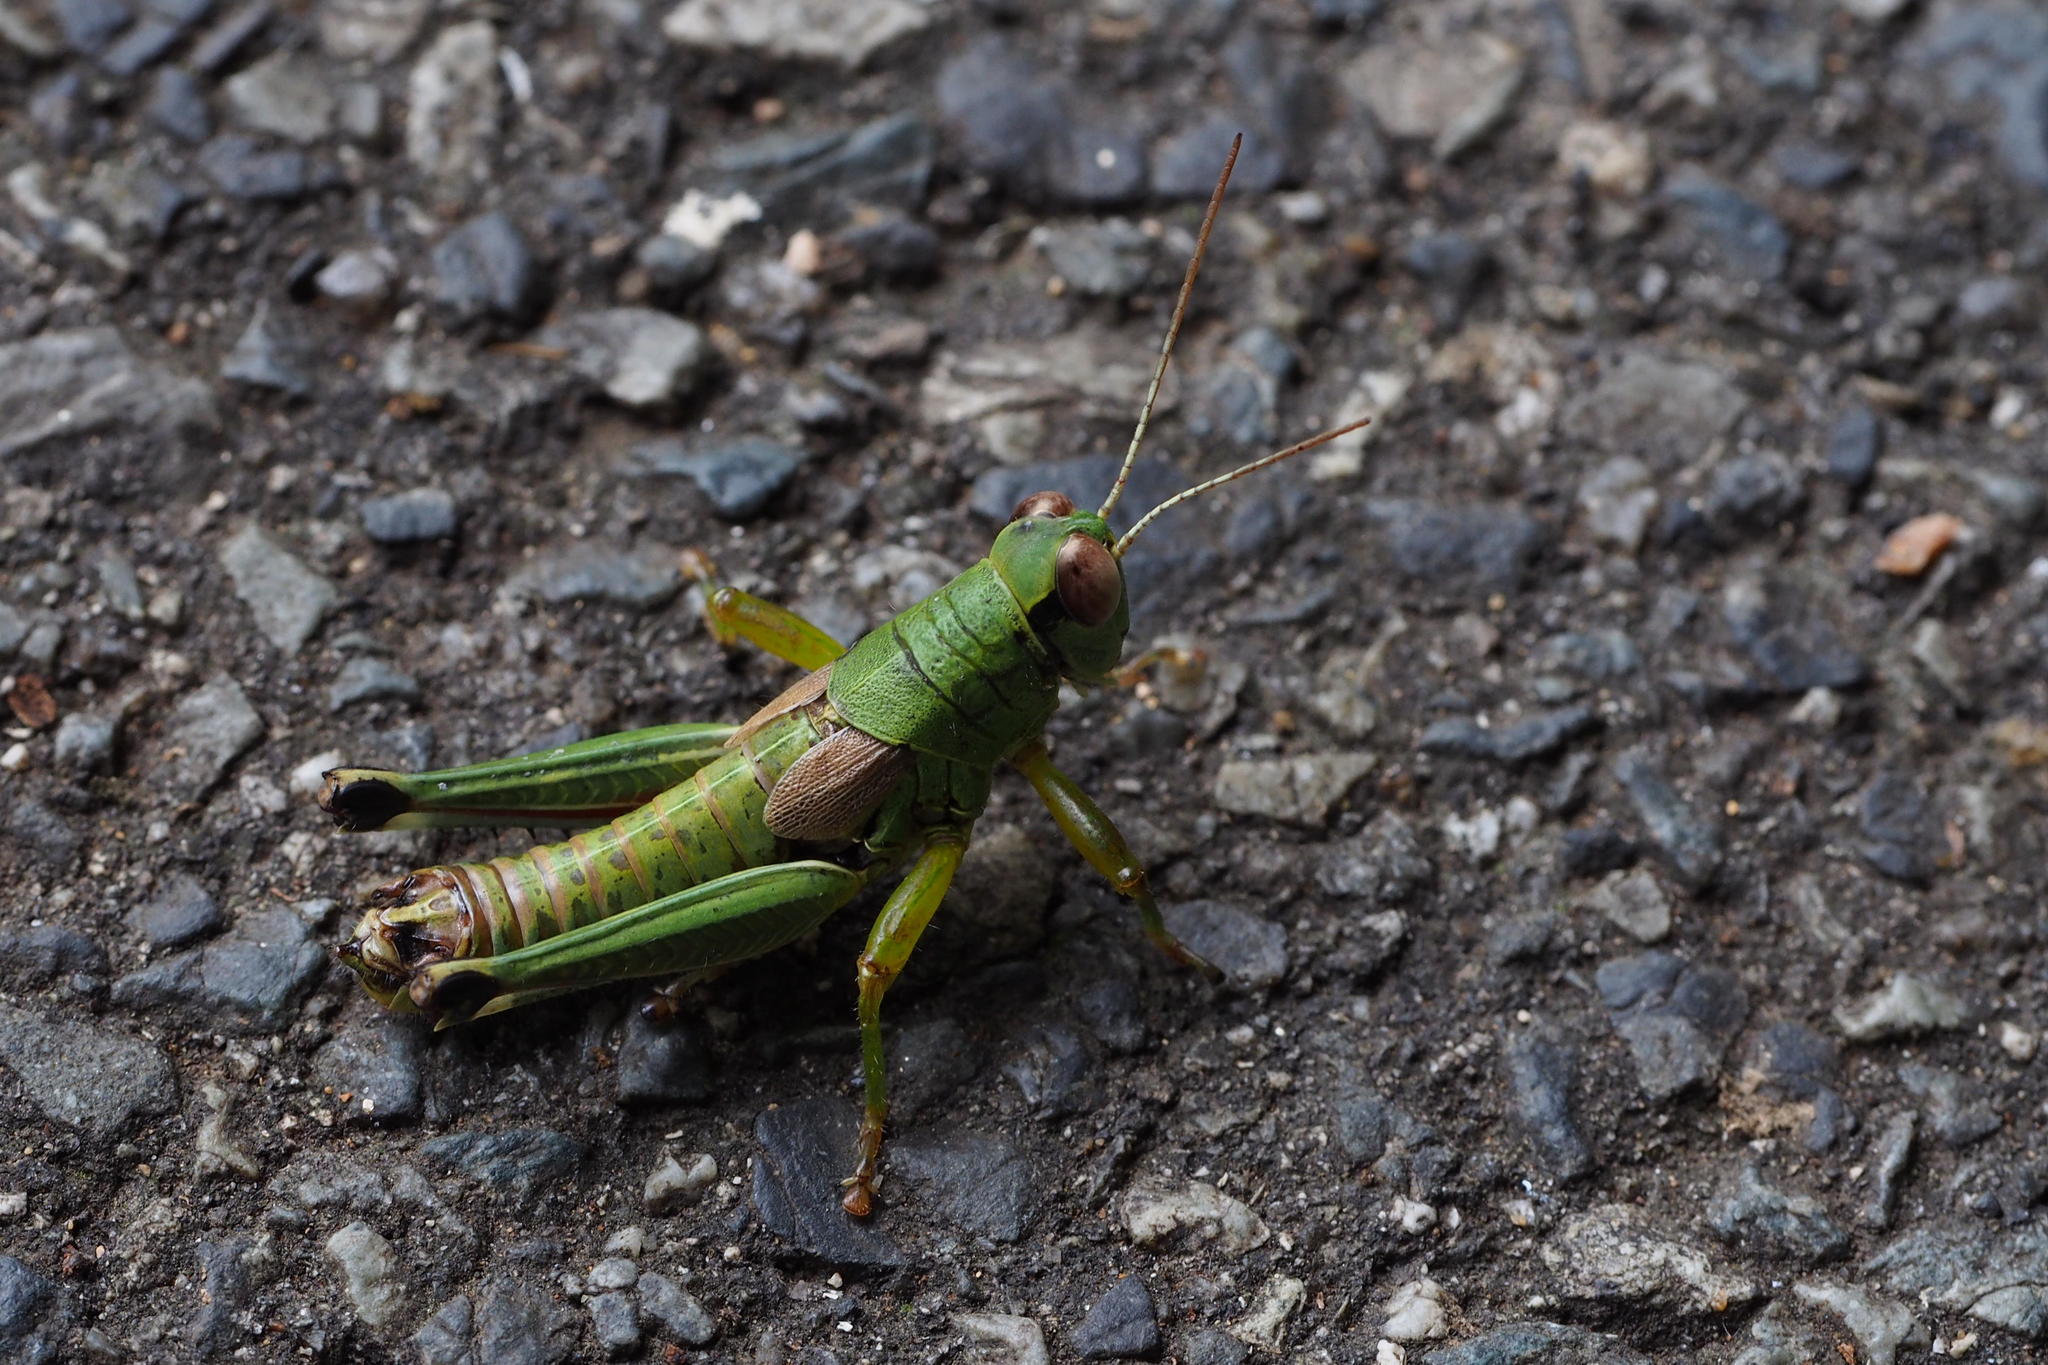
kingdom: Animalia
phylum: Arthropoda
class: Insecta
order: Orthoptera
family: Acrididae
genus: Parapodisma
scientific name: Parapodisma setouchiensis
